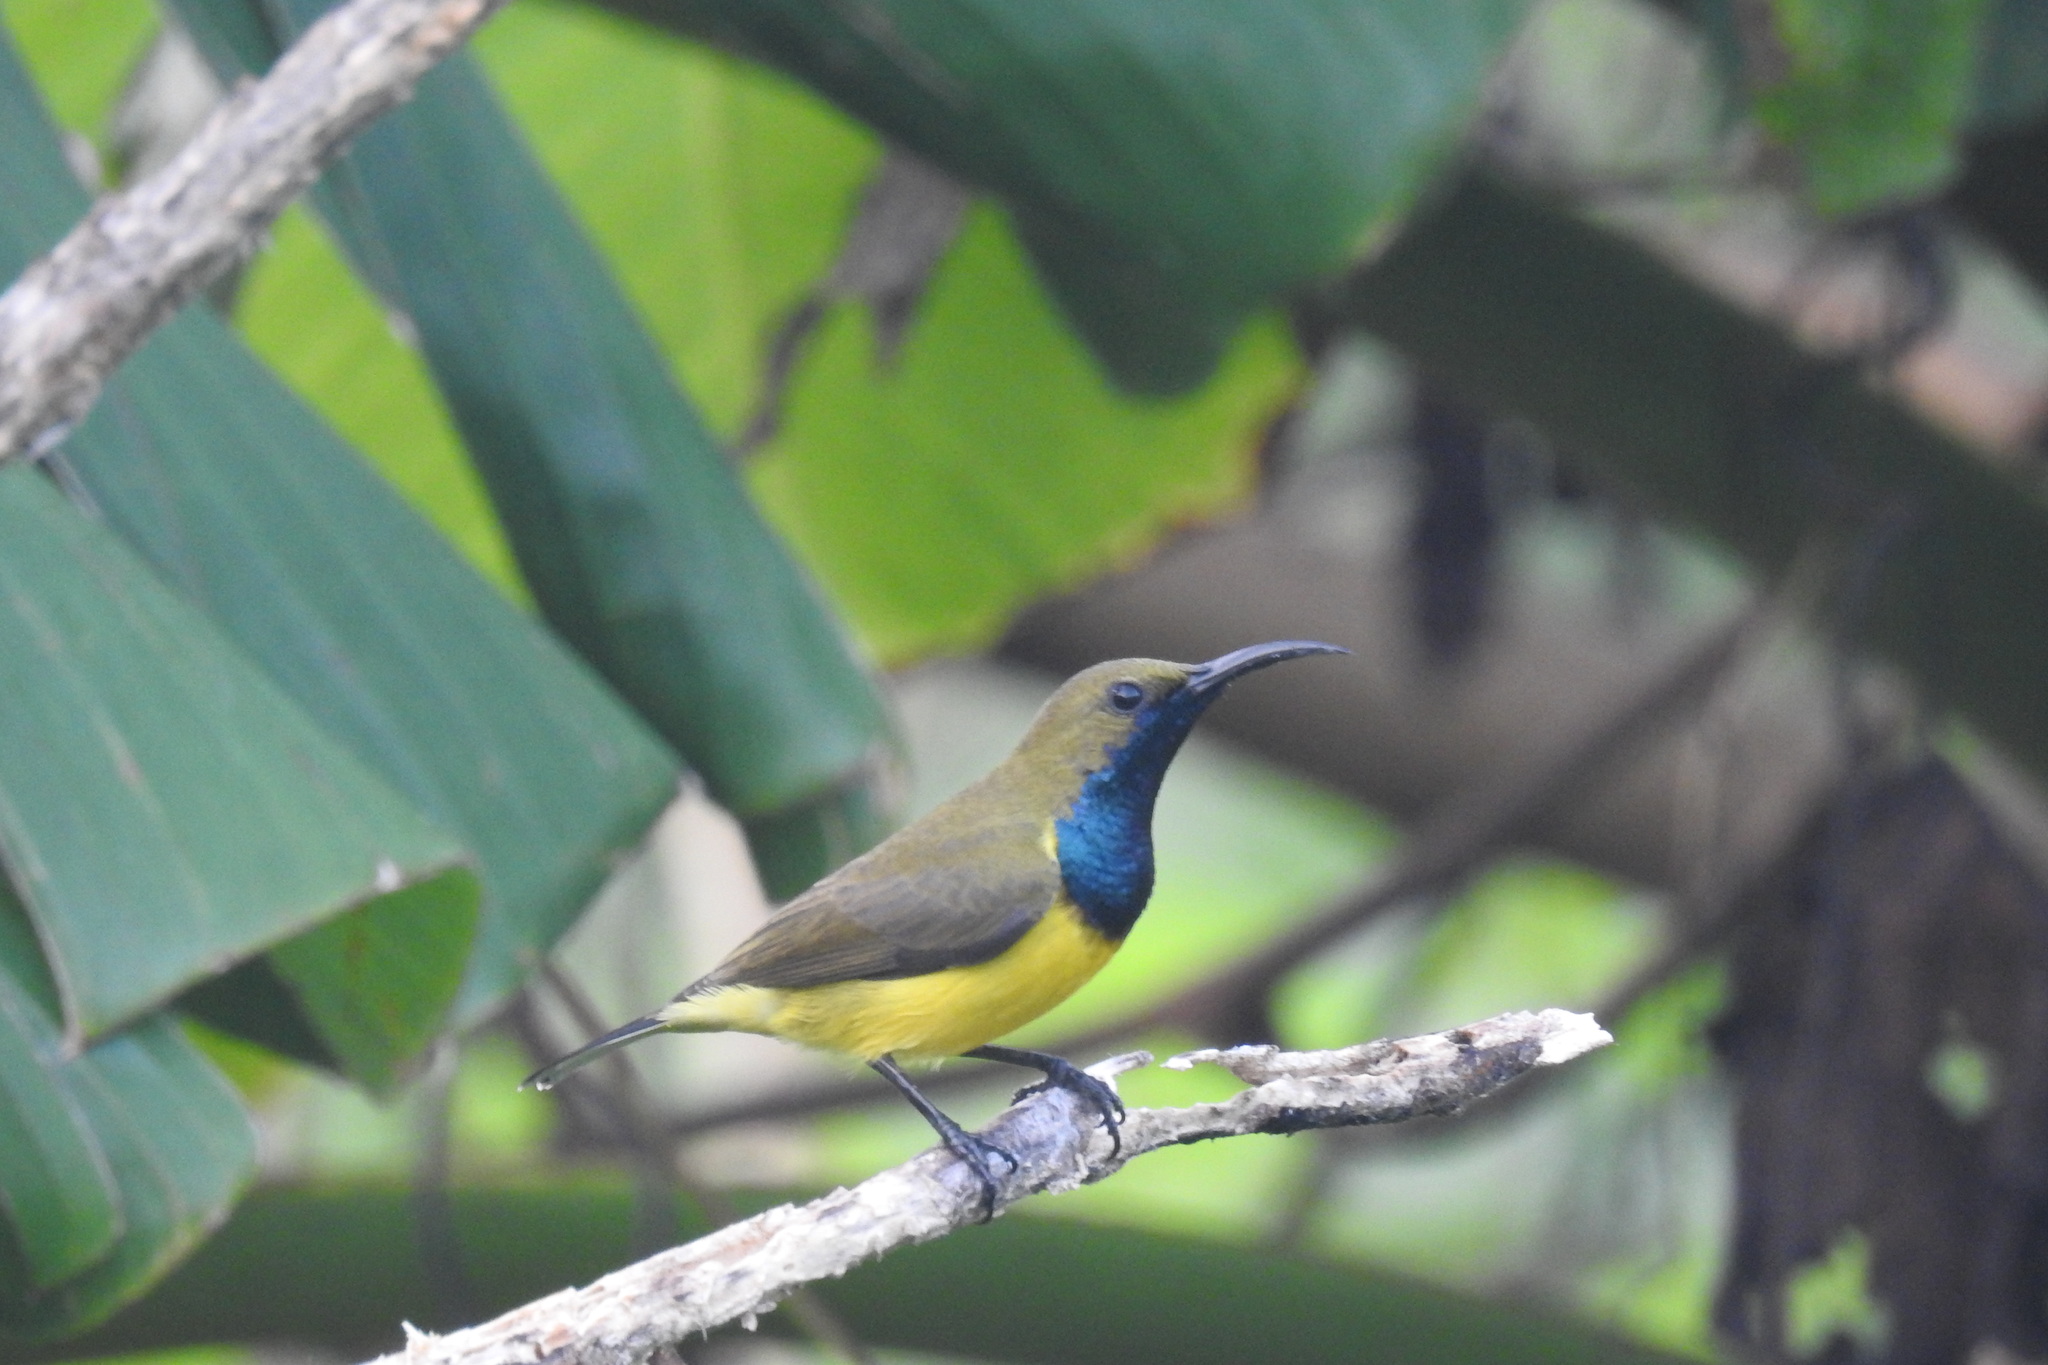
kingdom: Animalia
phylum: Chordata
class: Aves
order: Passeriformes
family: Nectariniidae
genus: Cinnyris
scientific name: Cinnyris jugularis
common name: Olive-backed sunbird
